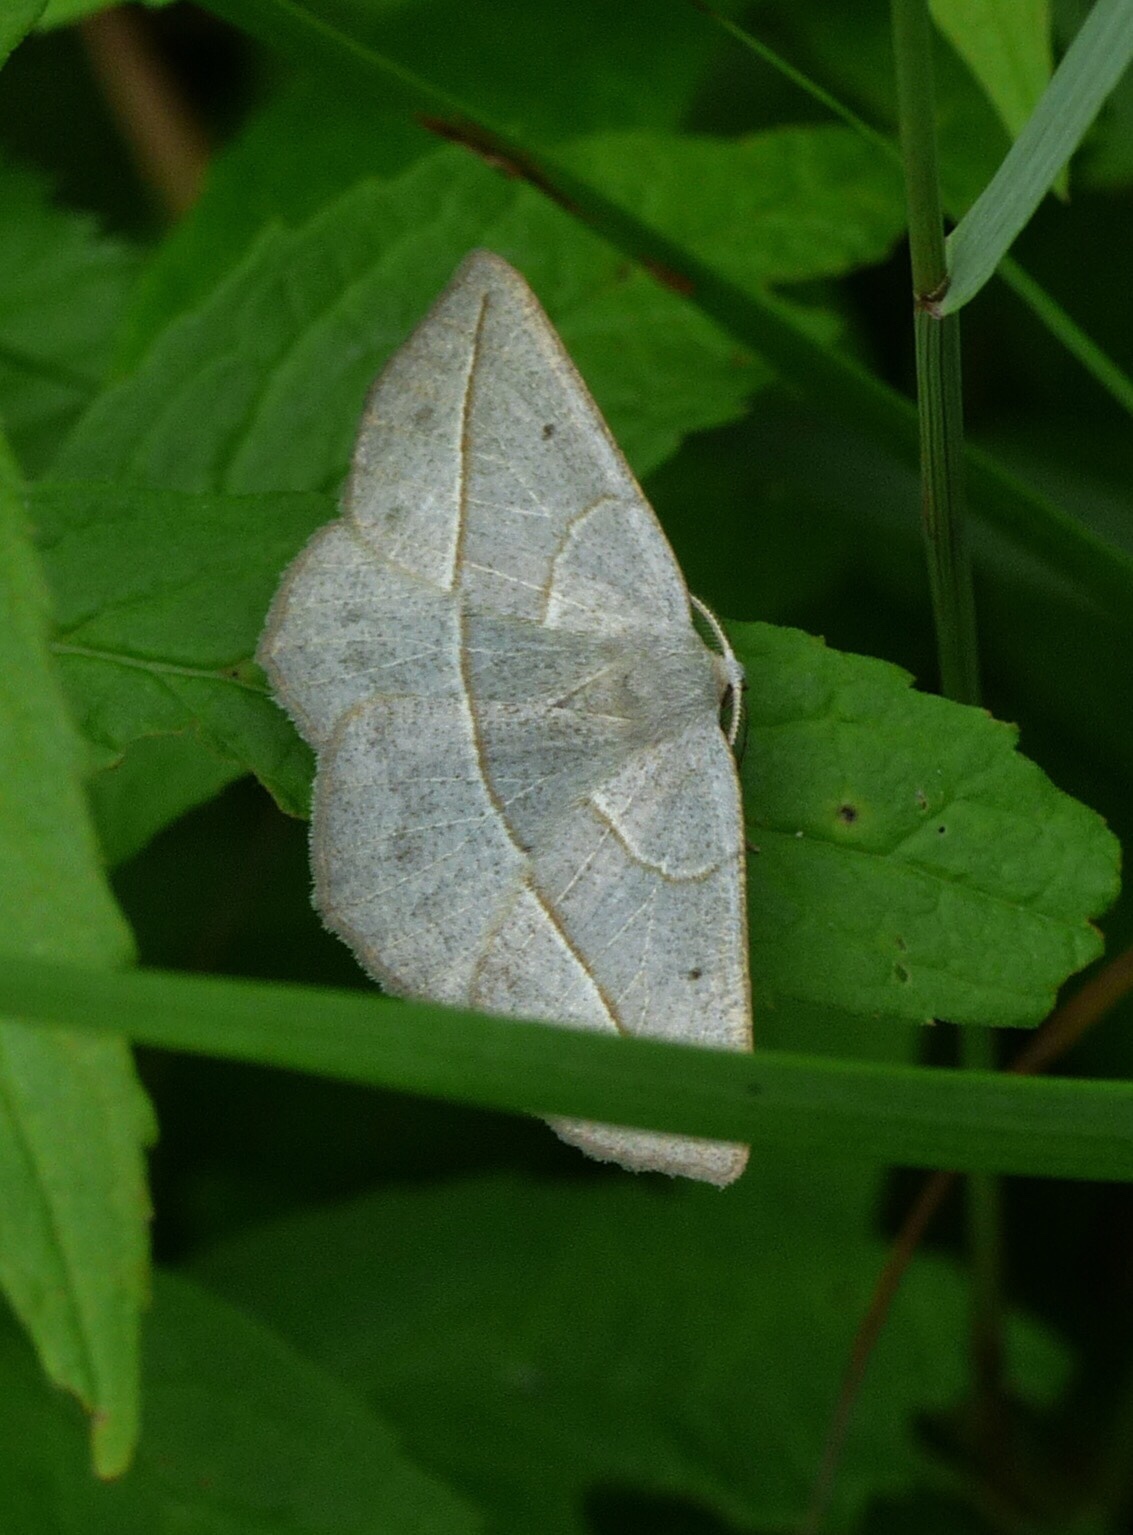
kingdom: Animalia
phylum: Arthropoda
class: Insecta
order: Lepidoptera
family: Geometridae
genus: Eusarca
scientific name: Eusarca confusaria
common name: Confused eusarca
